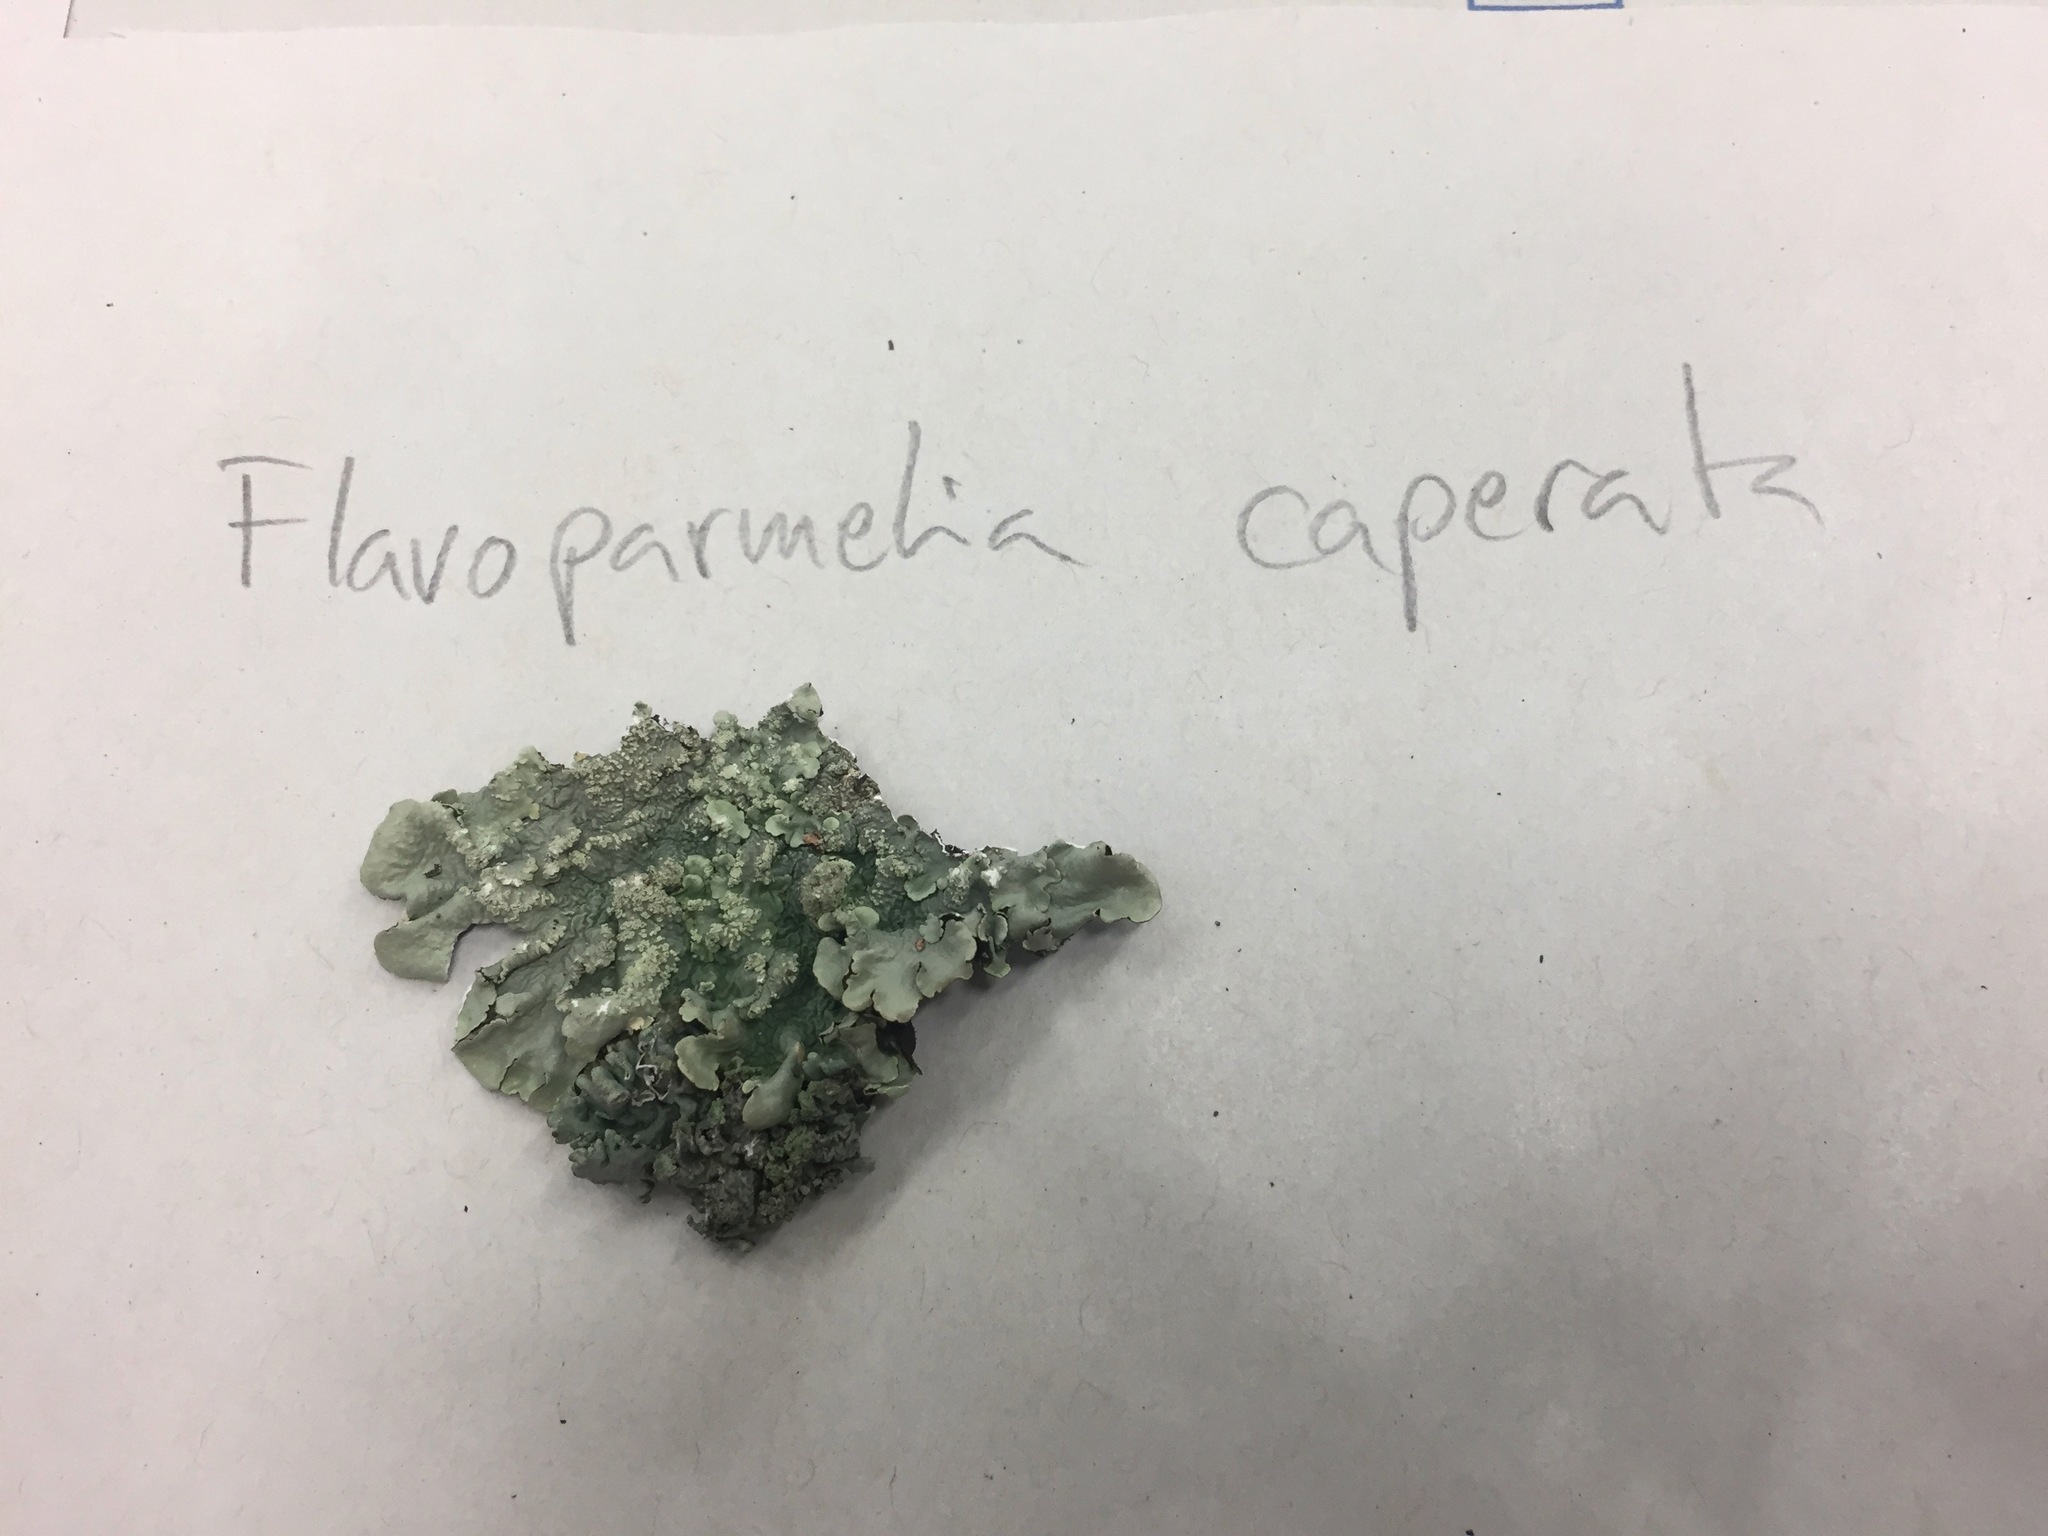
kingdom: Fungi
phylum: Ascomycota
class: Lecanoromycetes
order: Lecanorales
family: Parmeliaceae
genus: Flavoparmelia
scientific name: Flavoparmelia caperata
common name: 40-mile per hour lichen
